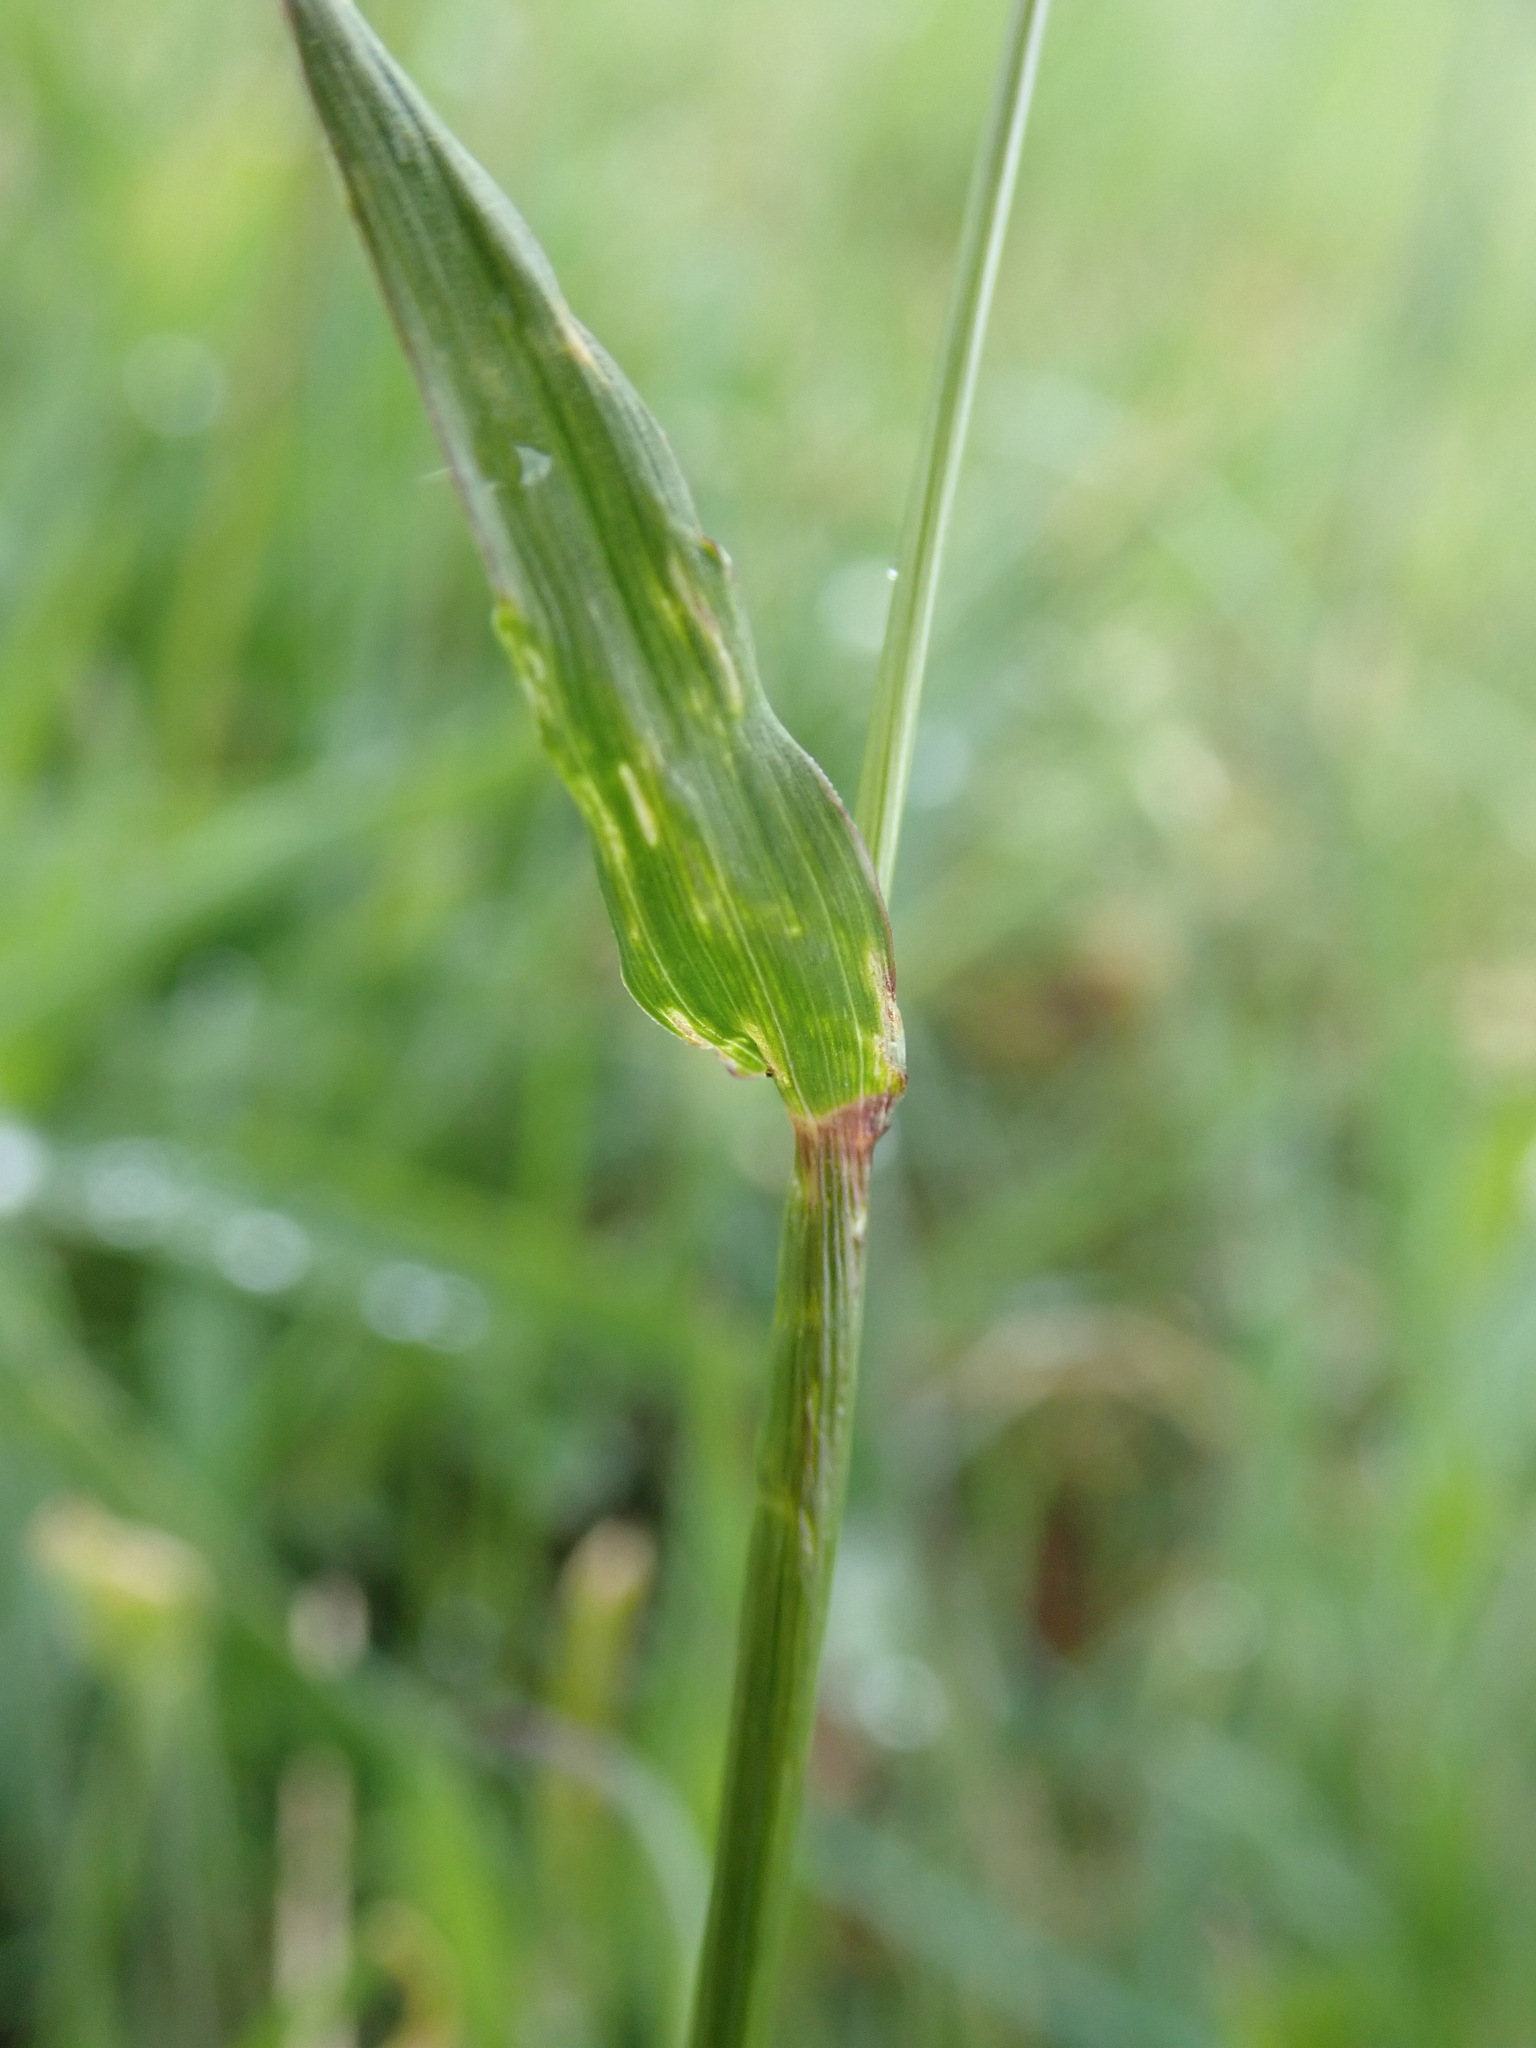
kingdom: Plantae
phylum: Tracheophyta
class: Liliopsida
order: Poales
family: Poaceae
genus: Anthoxanthum
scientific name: Anthoxanthum odoratum
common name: Sweet vernalgrass
